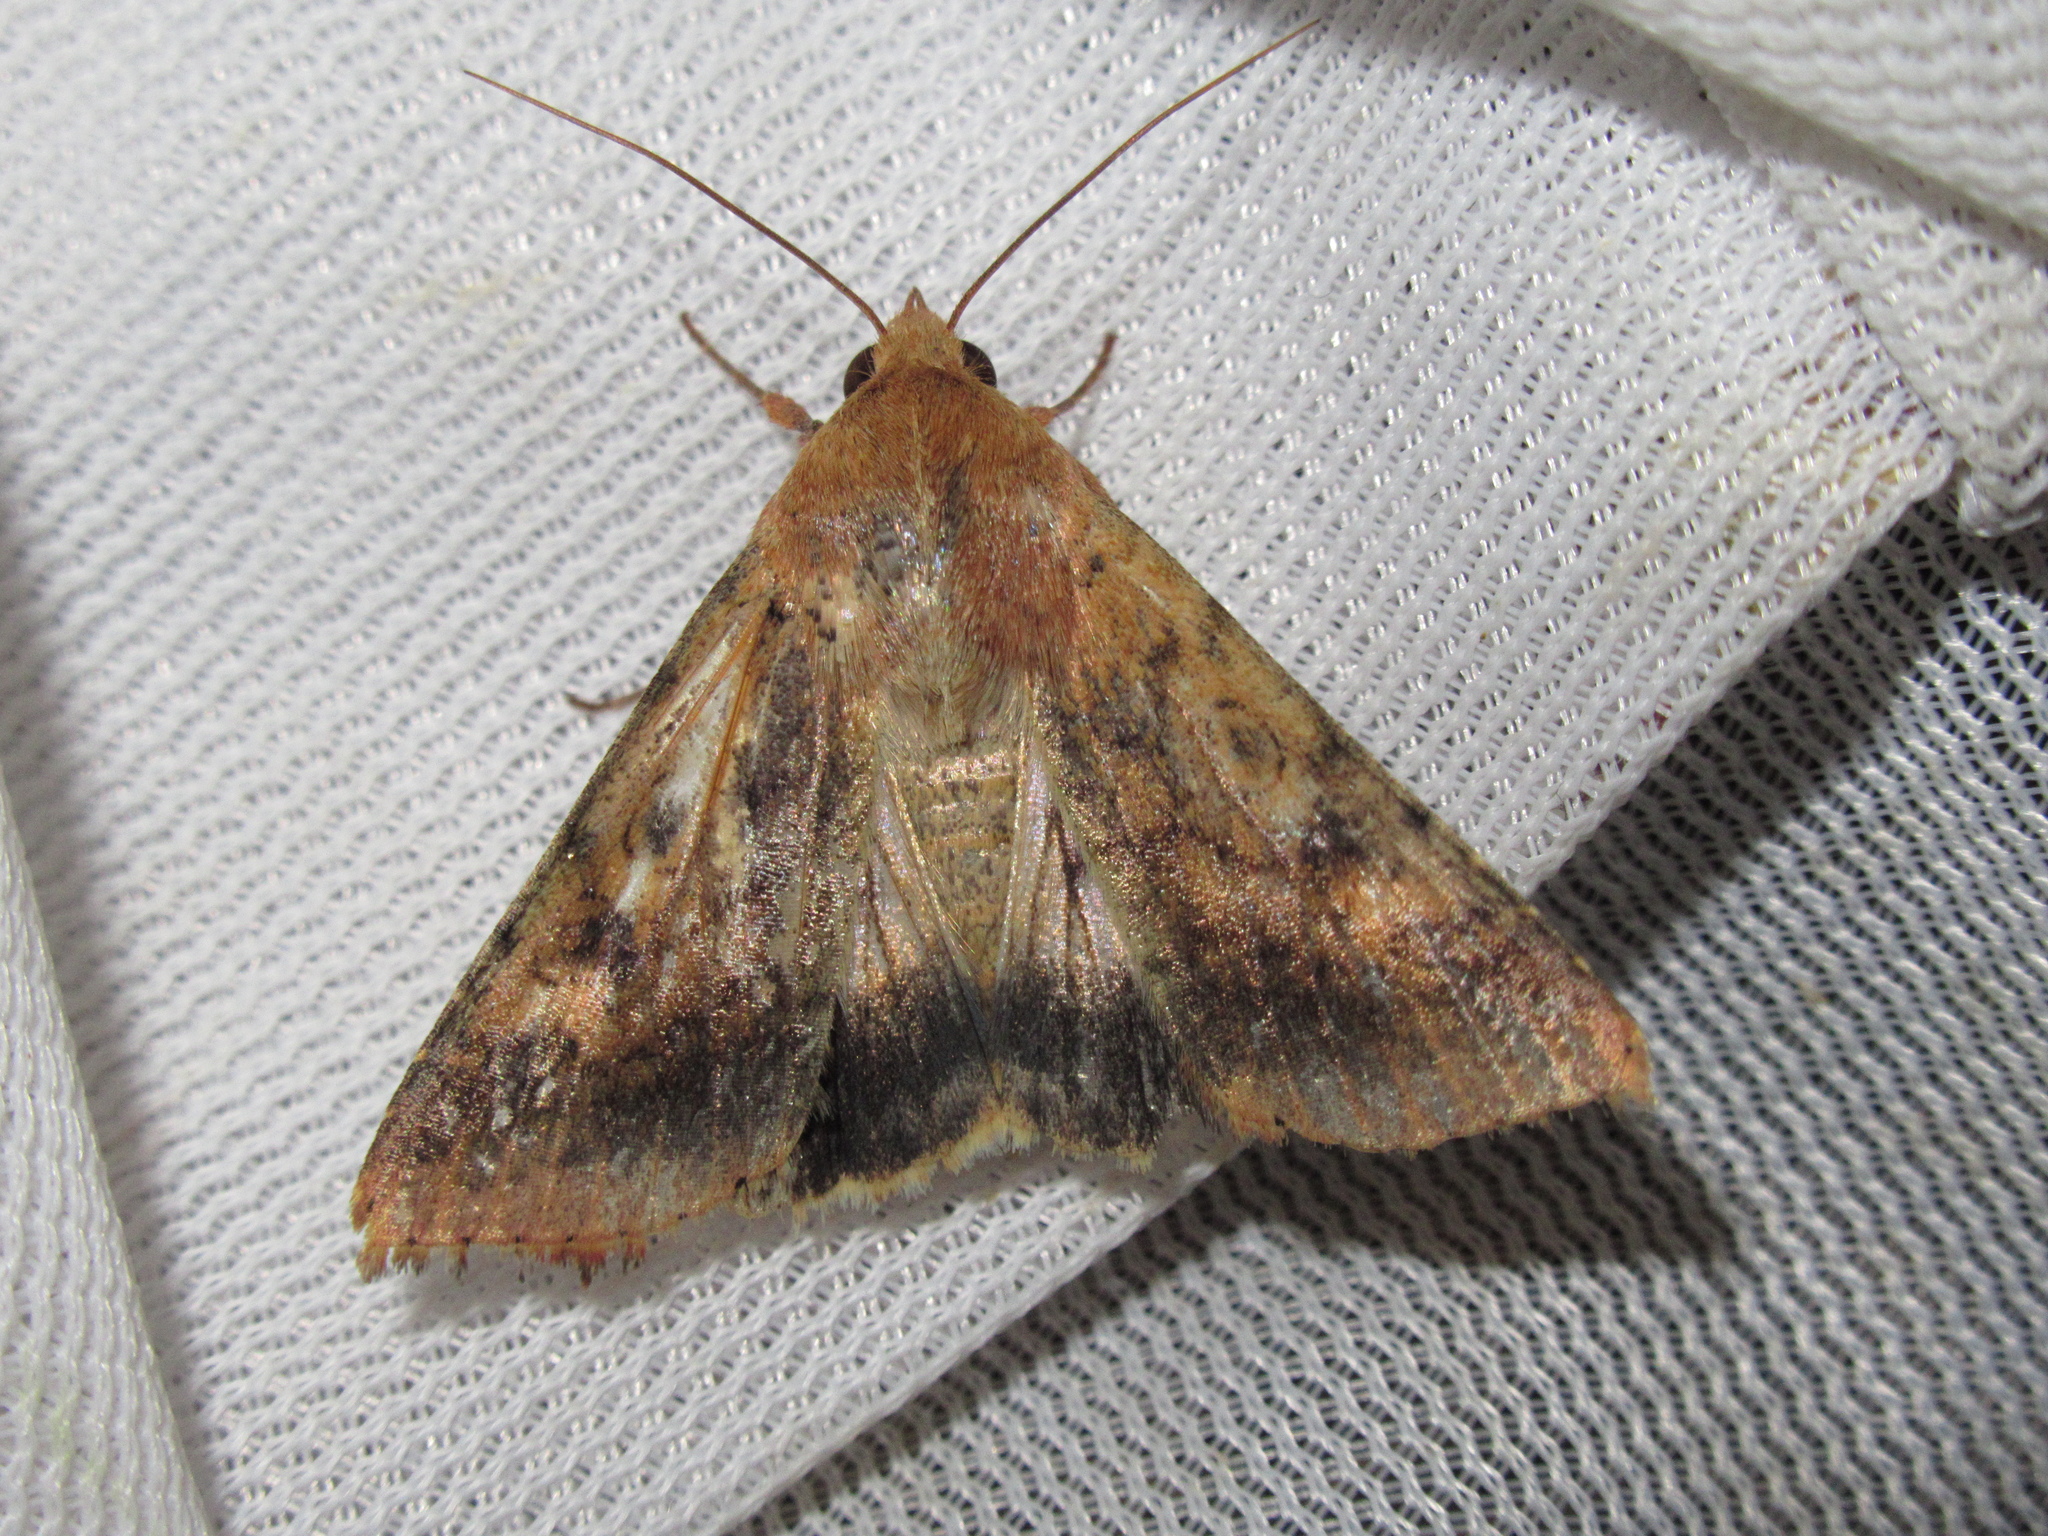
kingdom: Animalia
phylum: Arthropoda
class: Insecta
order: Lepidoptera
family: Noctuidae
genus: Helicoverpa
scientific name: Helicoverpa armigera
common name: Cotton bollworm
